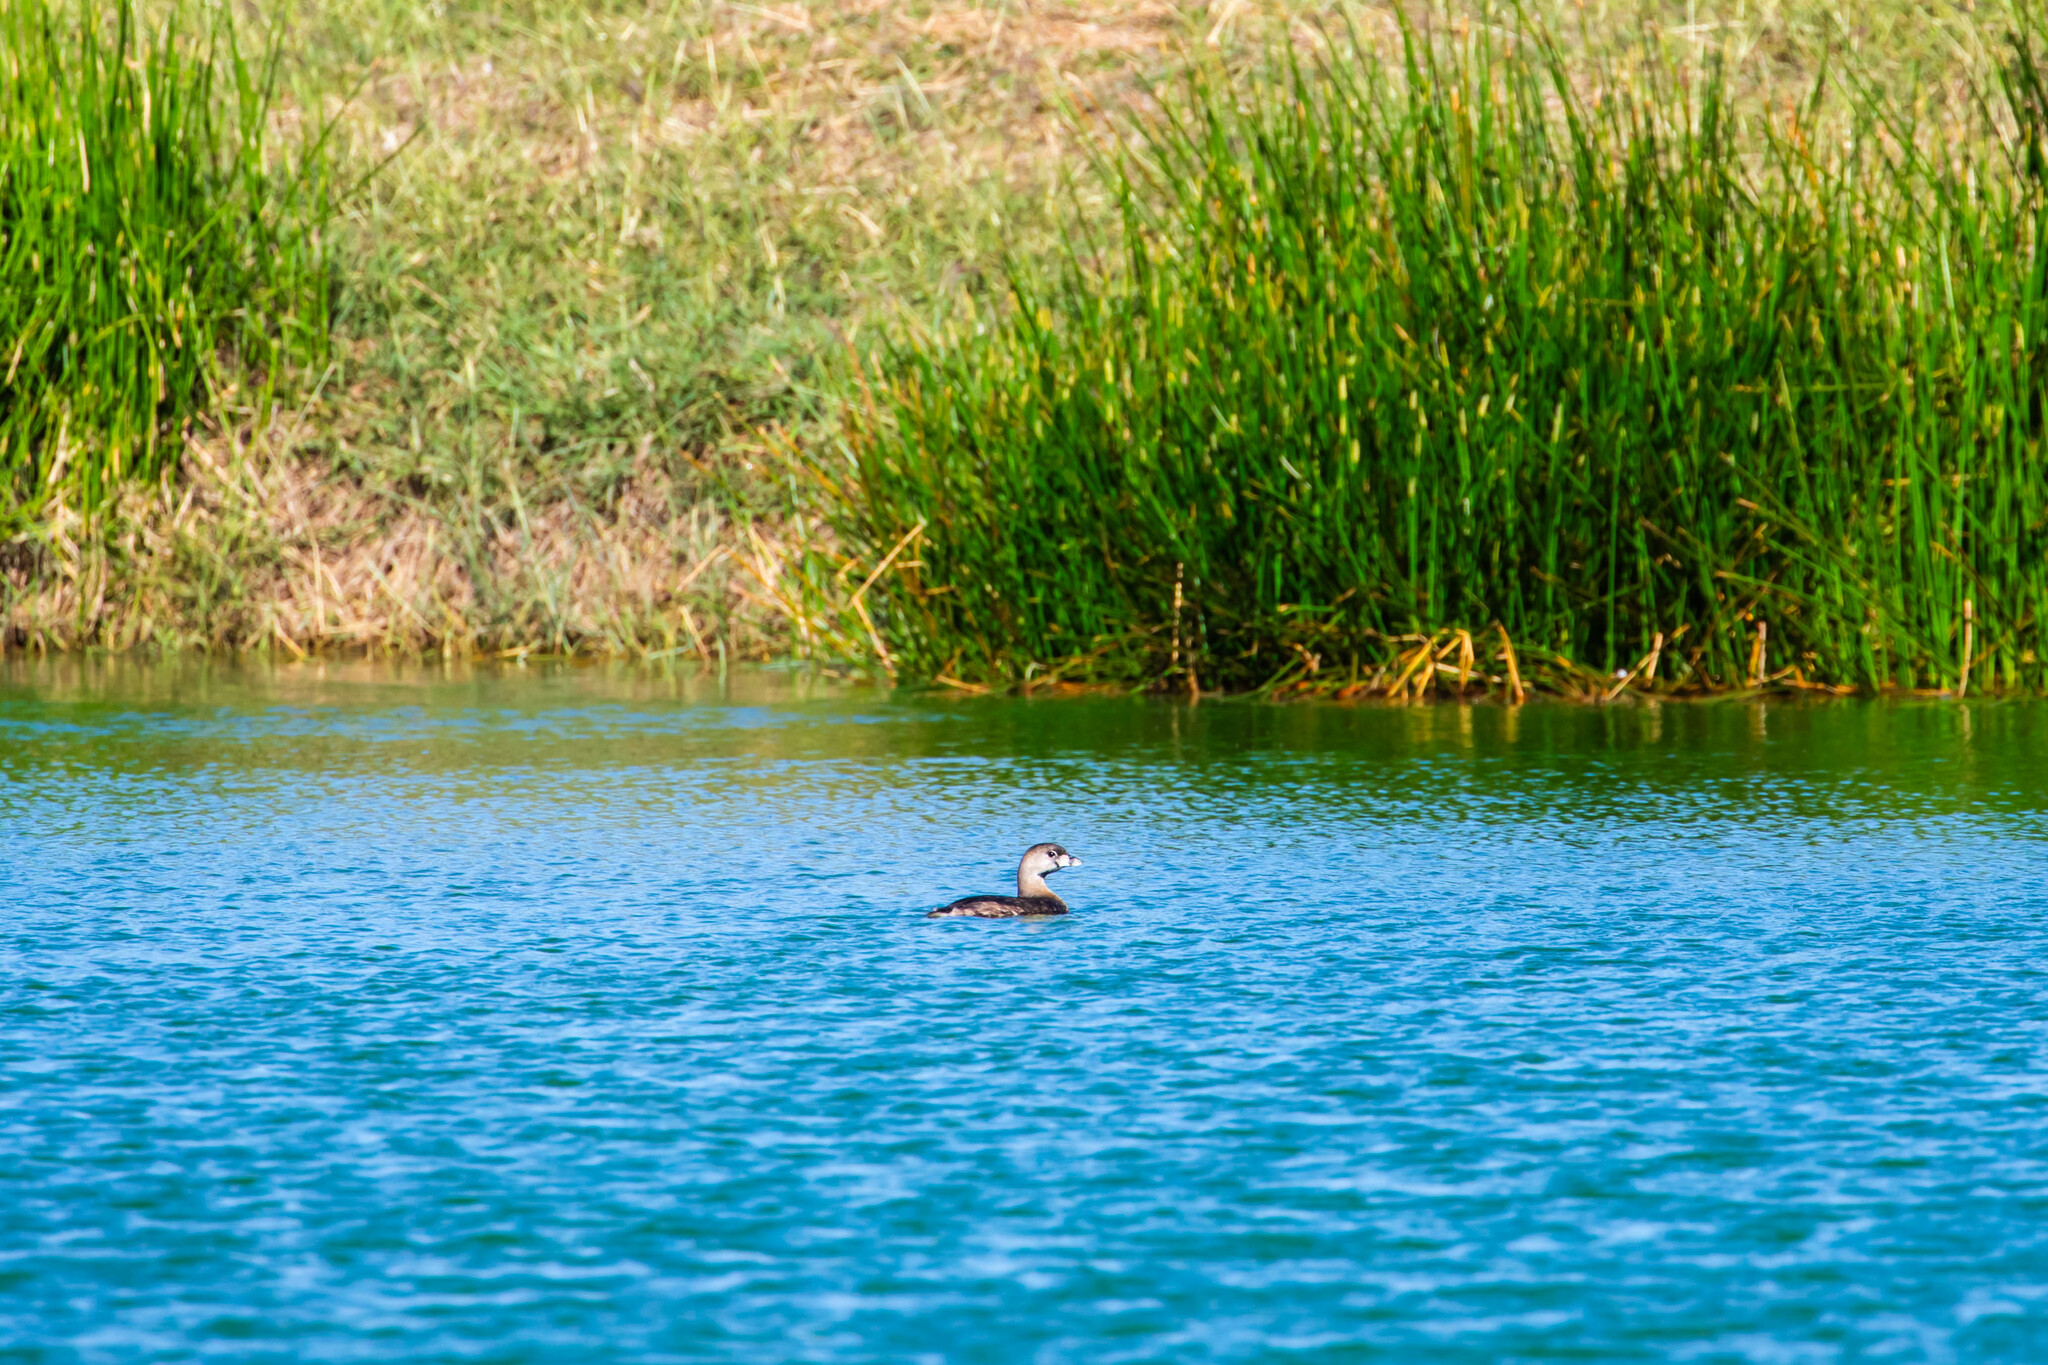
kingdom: Animalia
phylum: Chordata
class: Aves
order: Podicipediformes
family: Podicipedidae
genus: Podilymbus
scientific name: Podilymbus podiceps
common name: Pied-billed grebe
